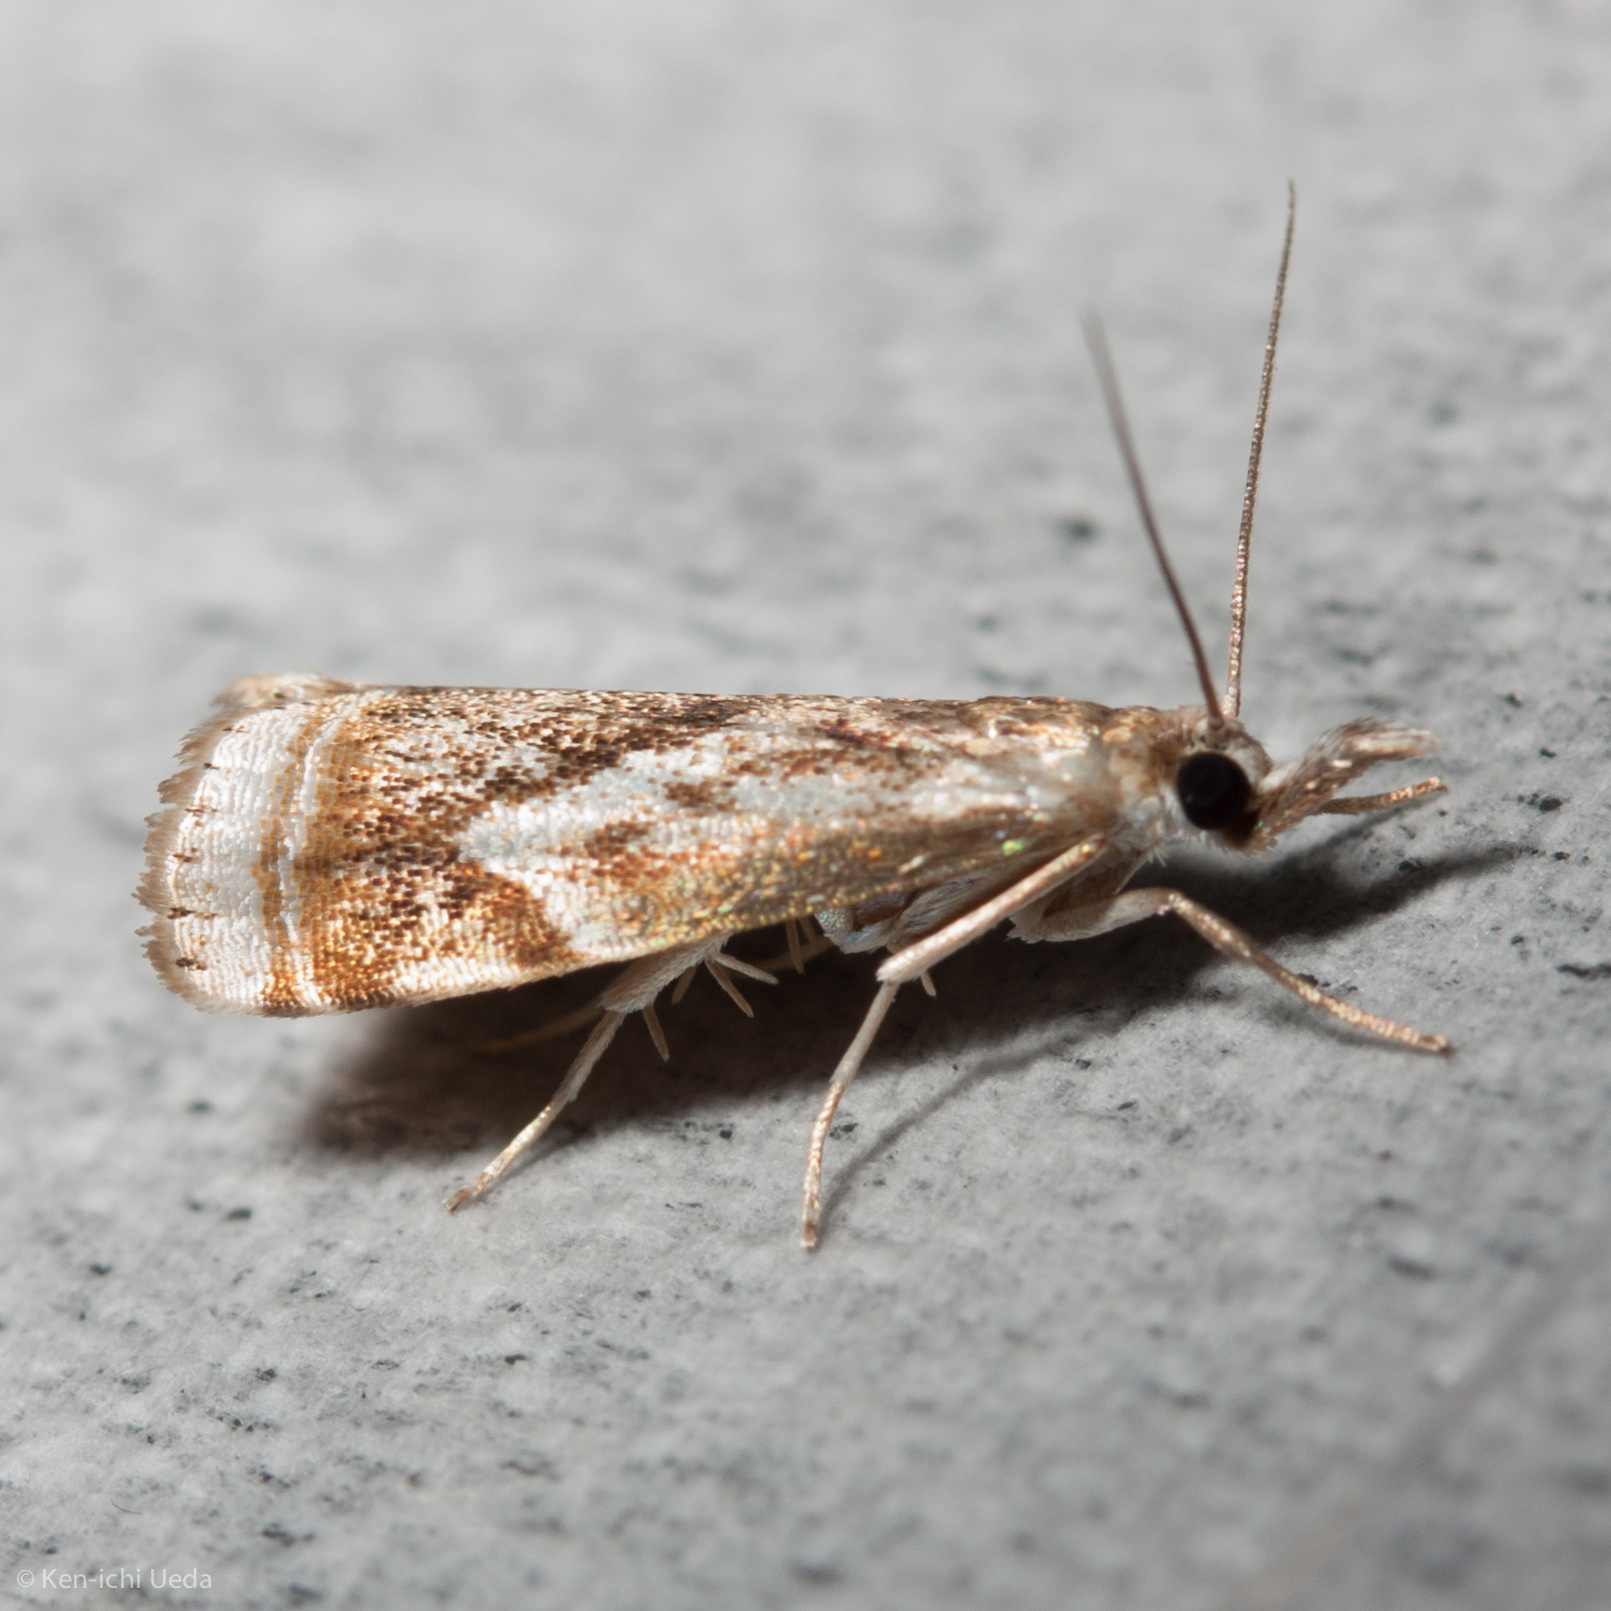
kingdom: Animalia
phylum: Arthropoda
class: Insecta
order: Lepidoptera
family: Crambidae
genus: Microcrambus
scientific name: Microcrambus elegans
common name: Elegant grass-veneer
